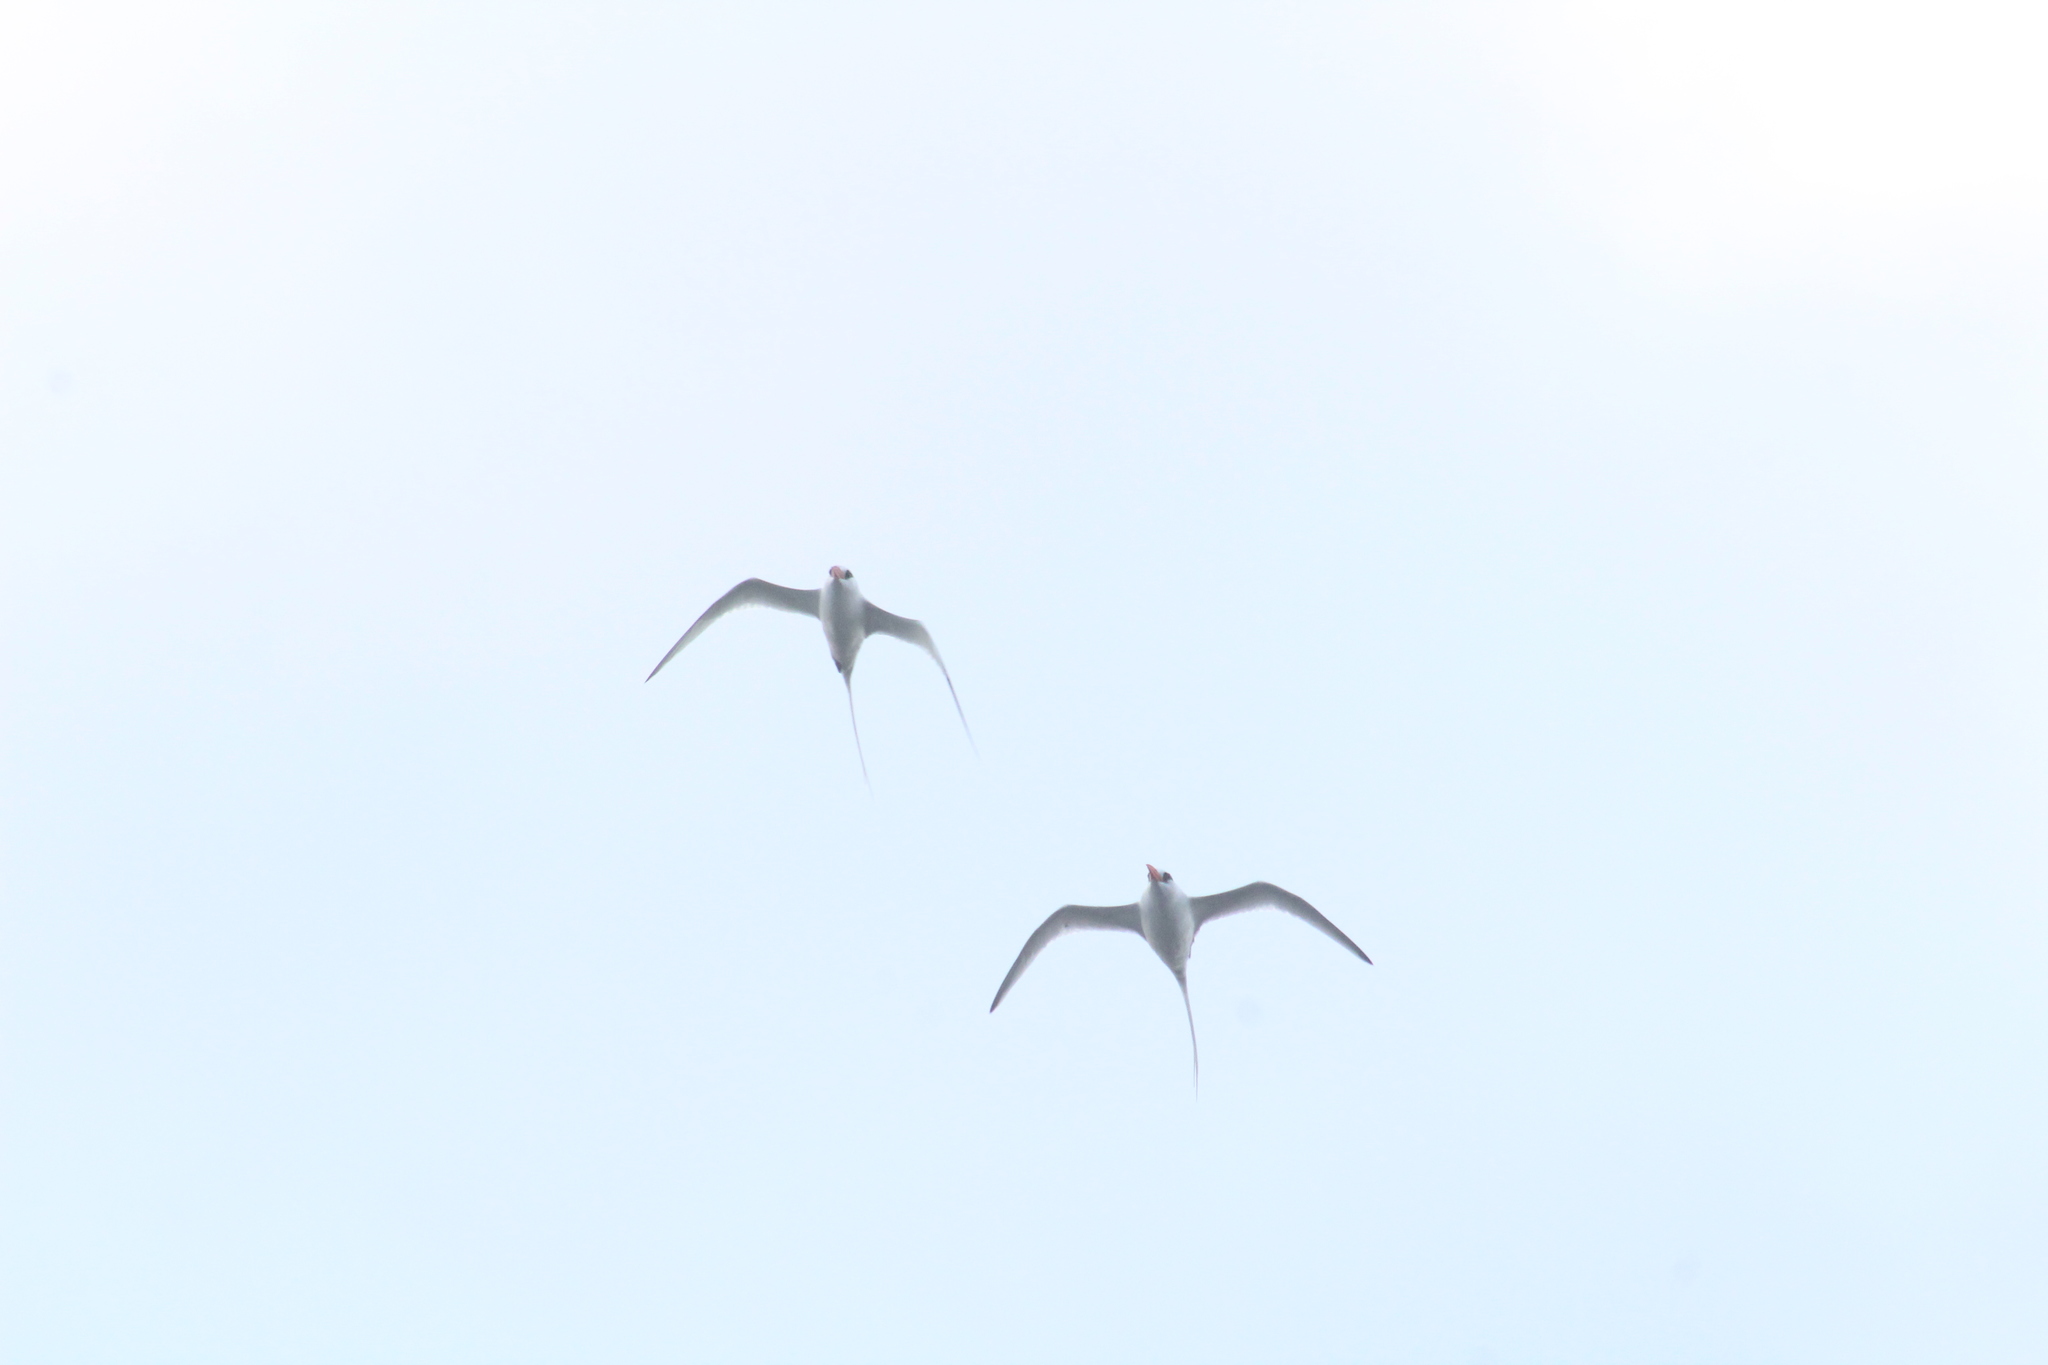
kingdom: Animalia
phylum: Chordata
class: Aves
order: Phaethontiformes
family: Phaethontidae
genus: Phaethon
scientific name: Phaethon aethereus
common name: Red-billed tropicbird
